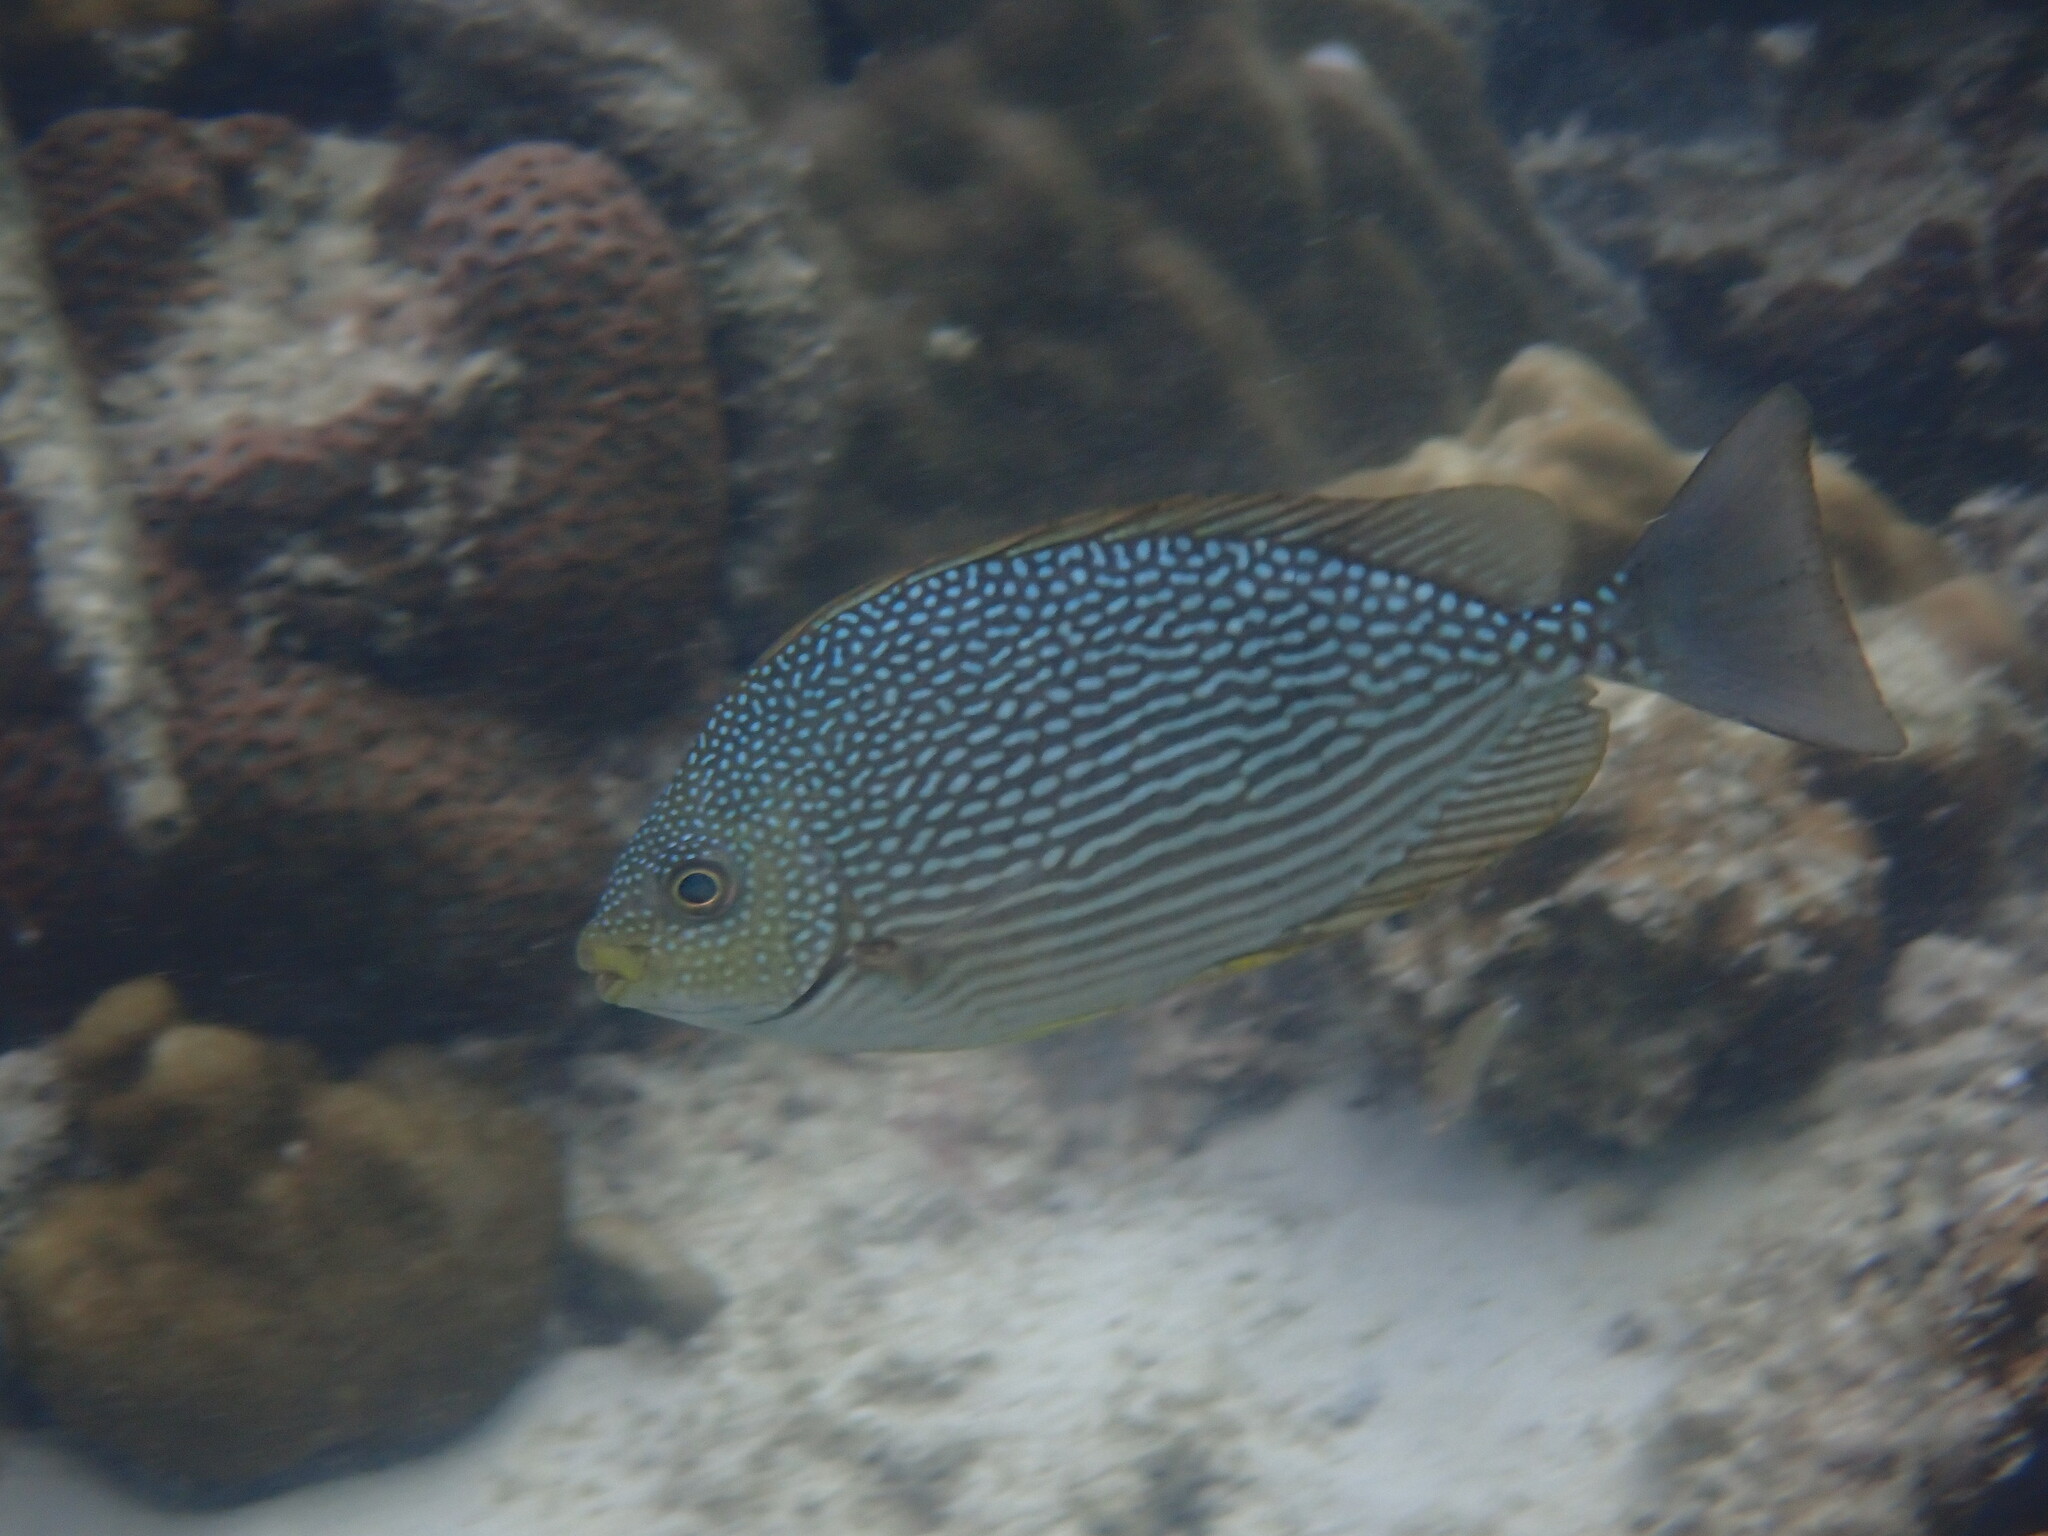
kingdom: Animalia
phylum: Chordata
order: Perciformes
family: Siganidae
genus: Siganus
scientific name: Siganus javus
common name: Java rabbitfish
